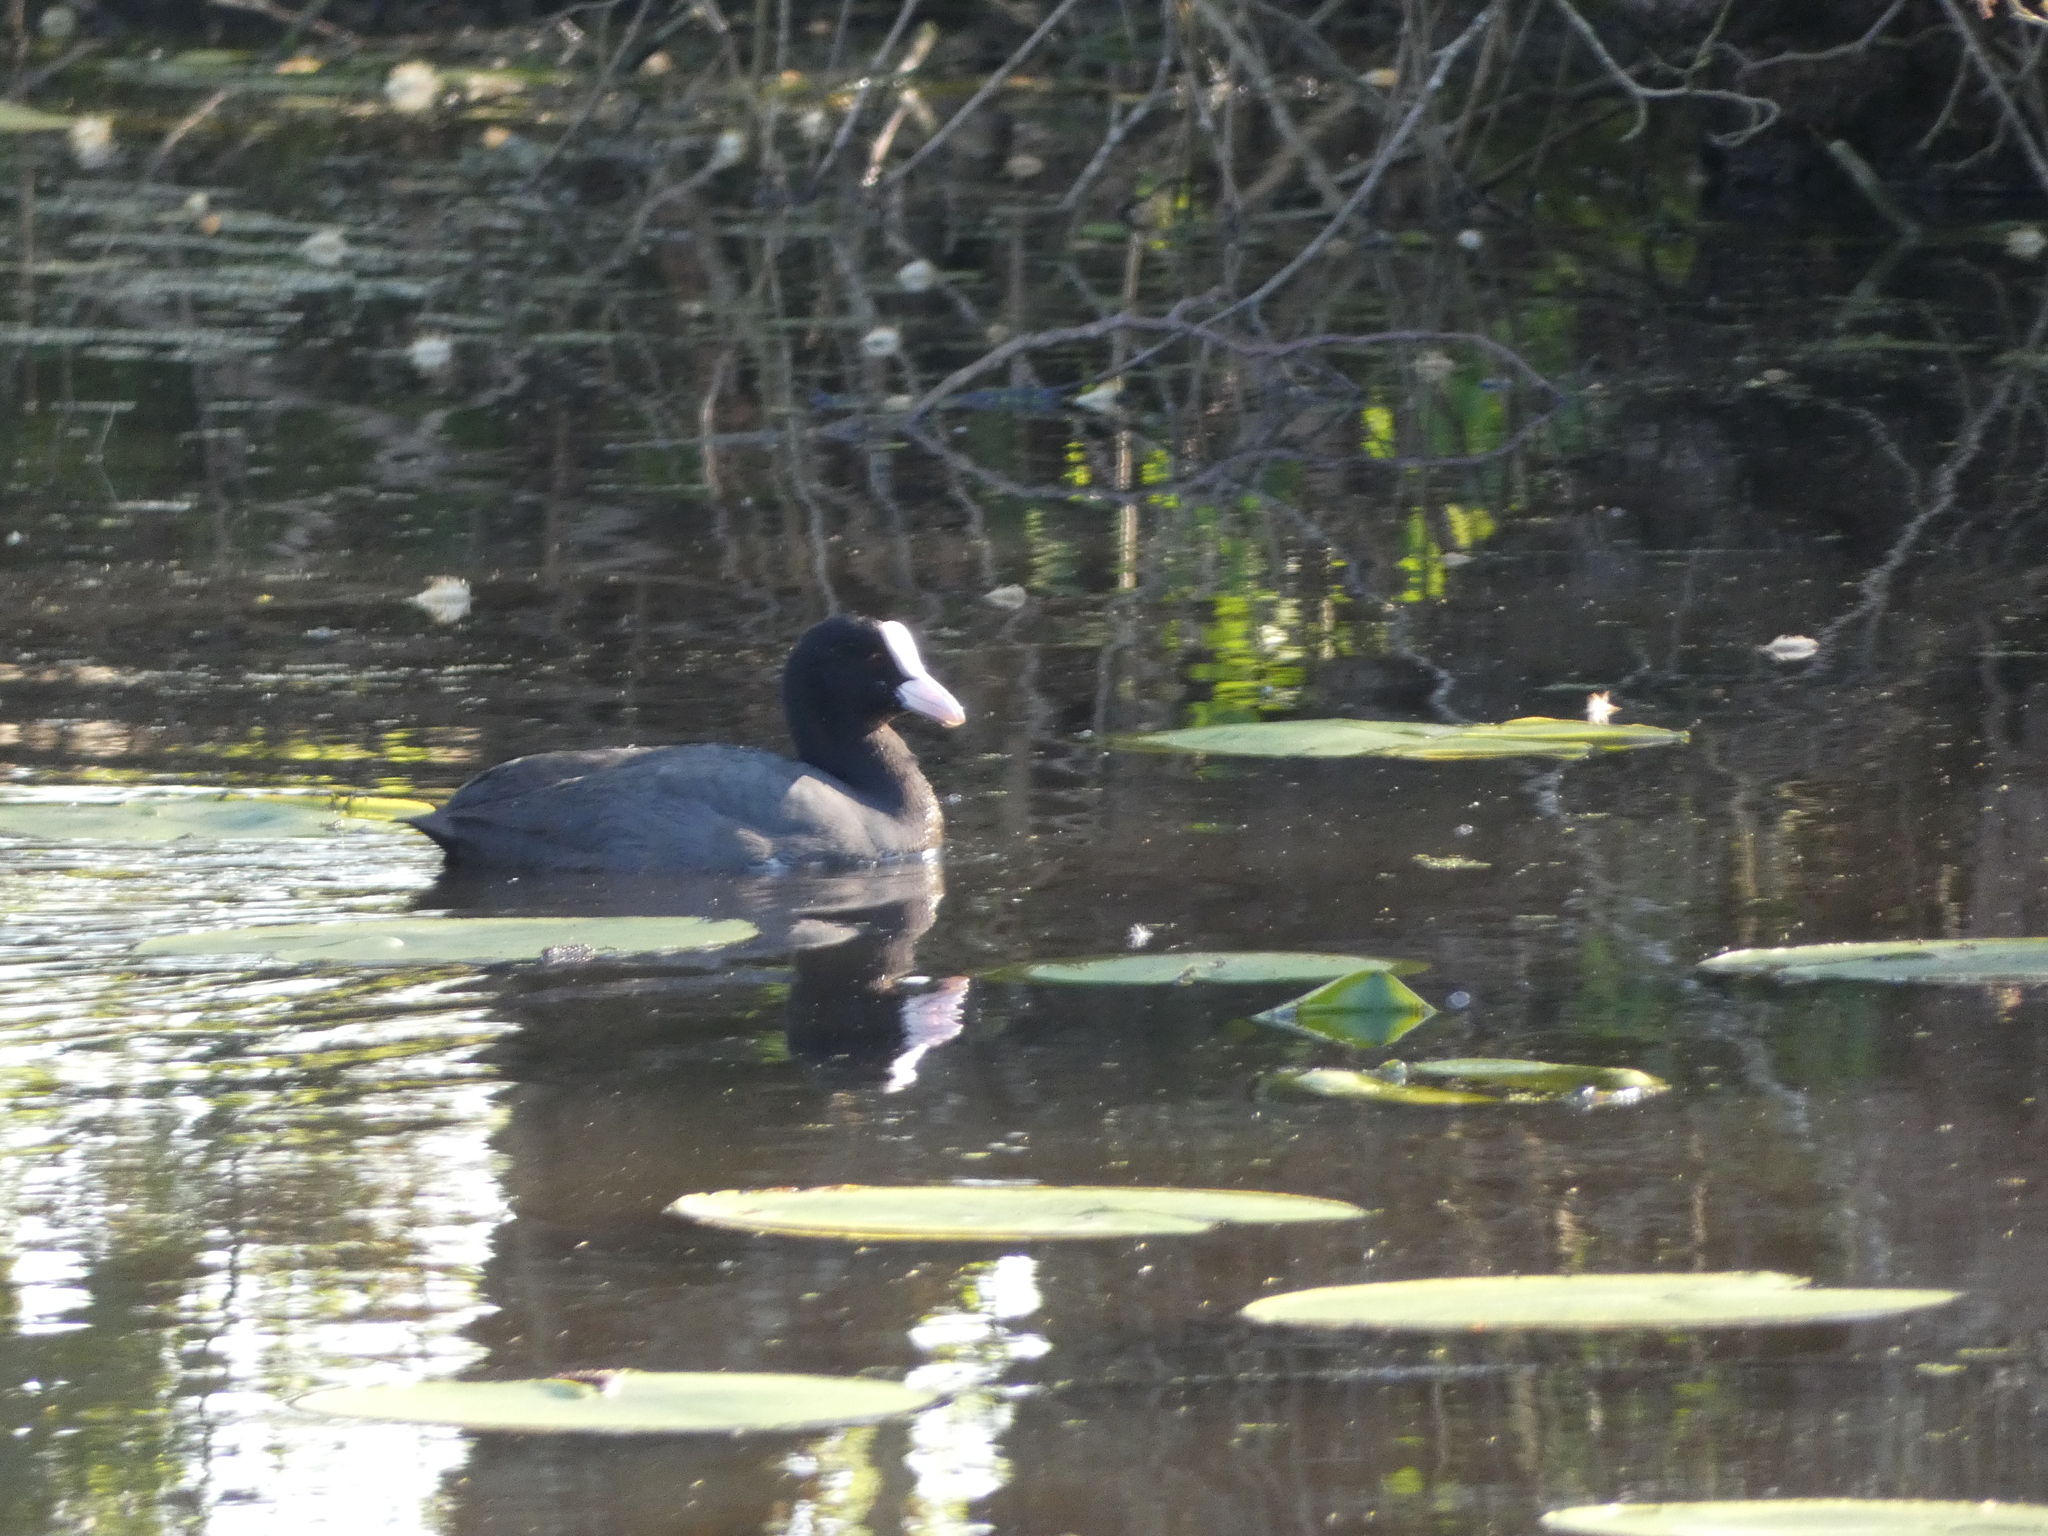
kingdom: Animalia
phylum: Chordata
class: Aves
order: Gruiformes
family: Rallidae
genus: Fulica
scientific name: Fulica atra
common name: Eurasian coot
